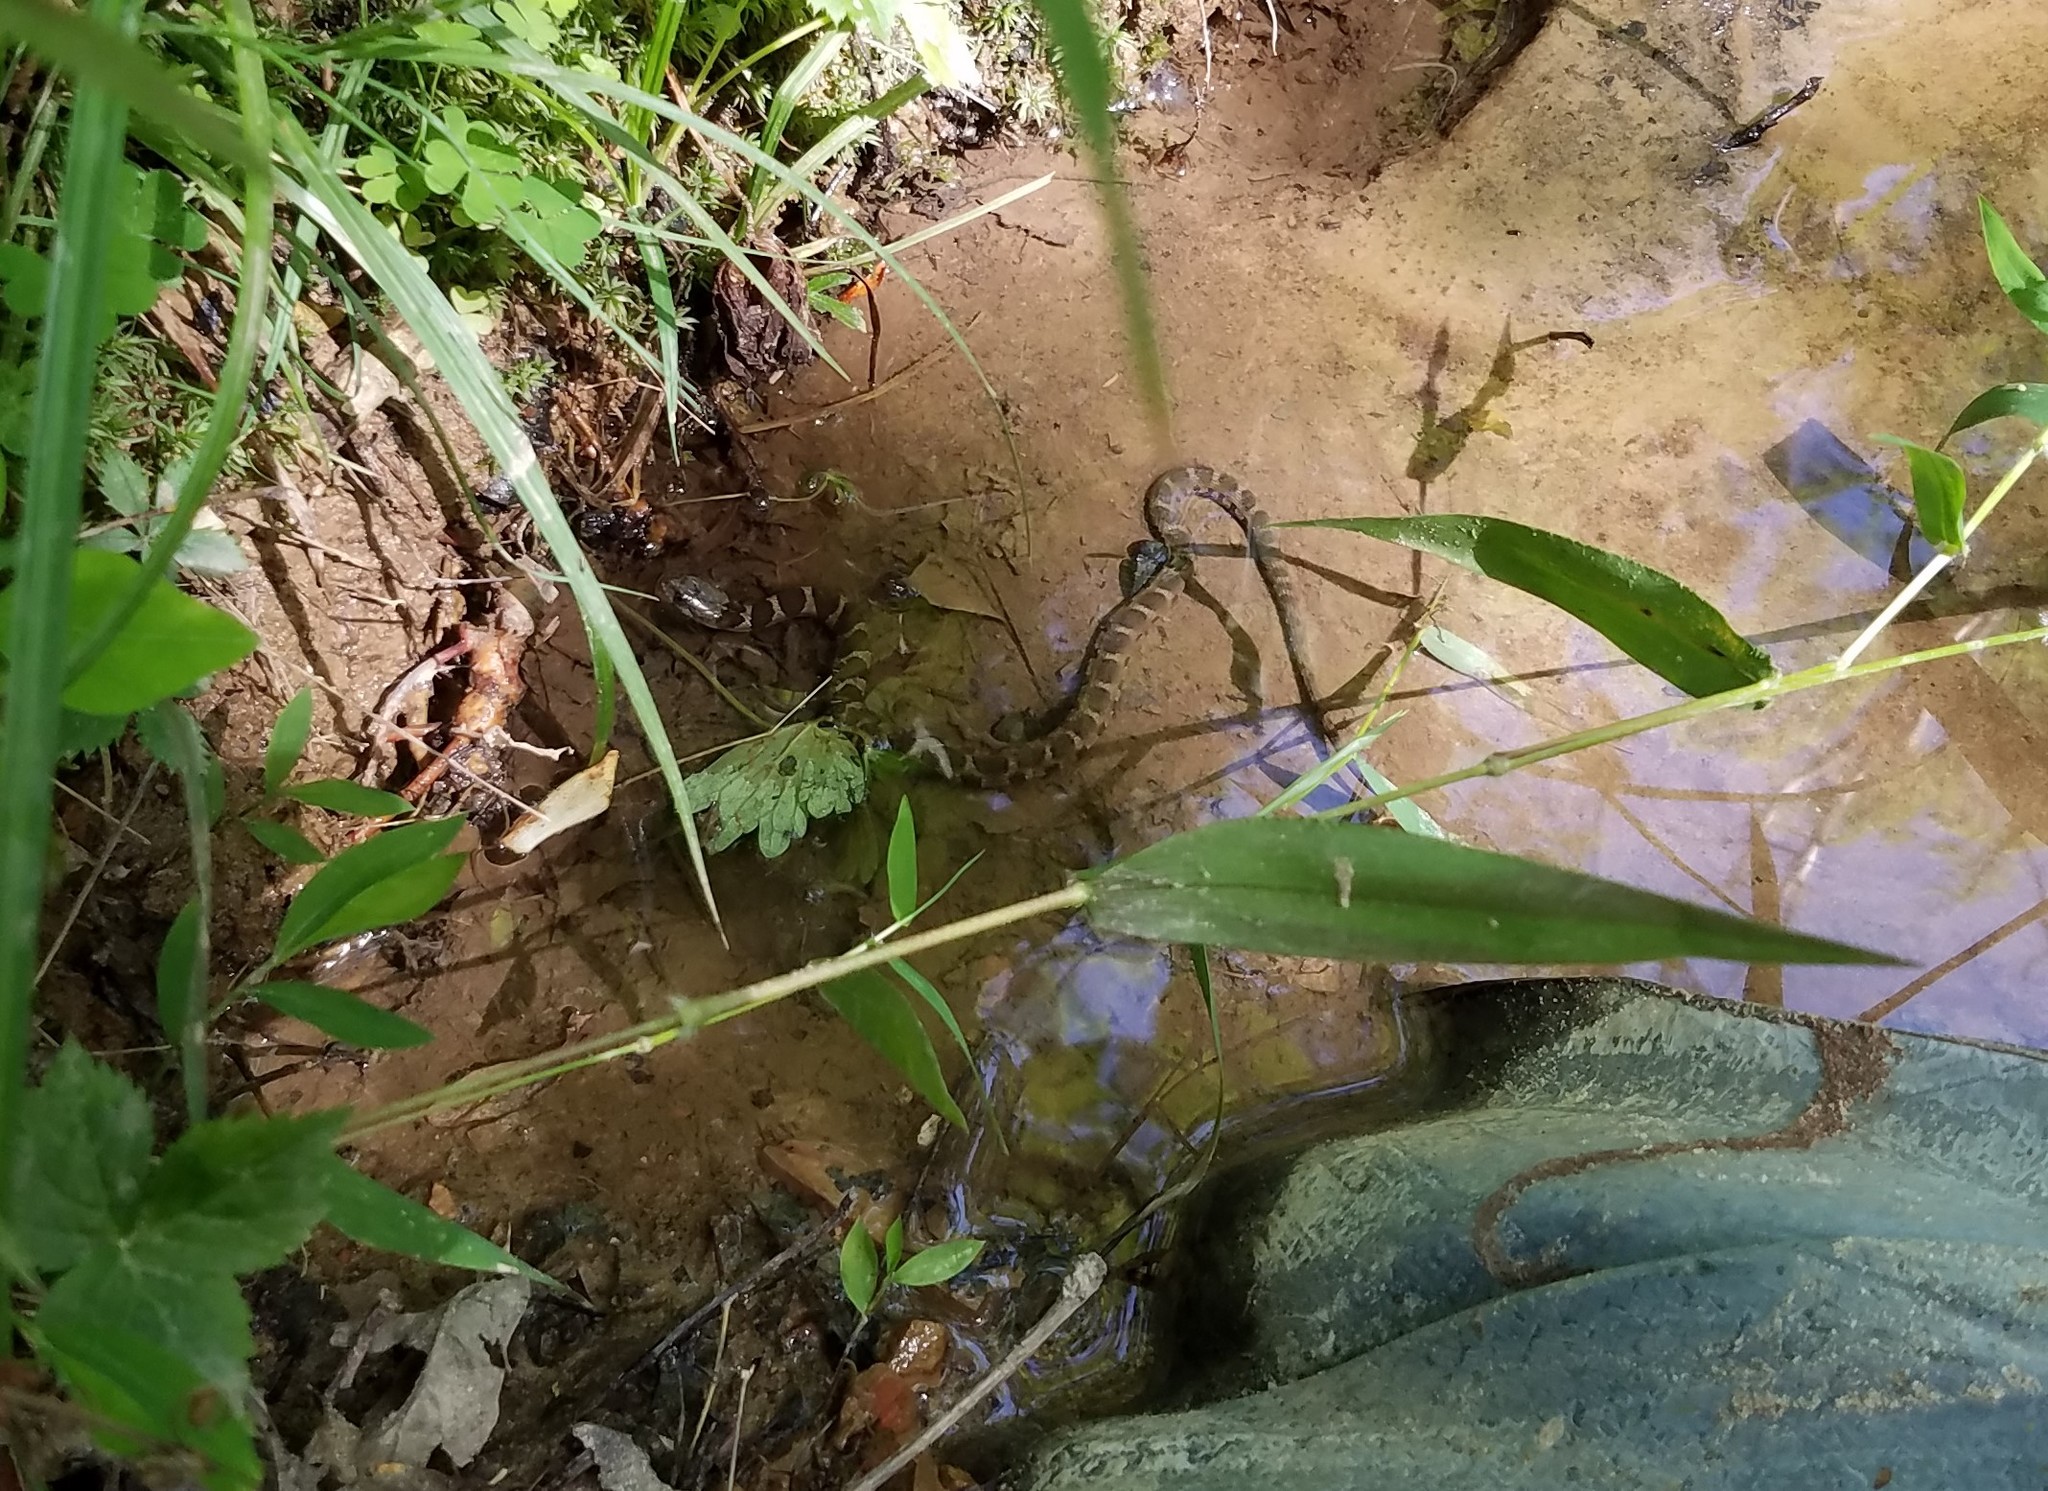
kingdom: Animalia
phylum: Chordata
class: Squamata
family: Colubridae
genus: Nerodia
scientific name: Nerodia sipedon
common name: Northern water snake
